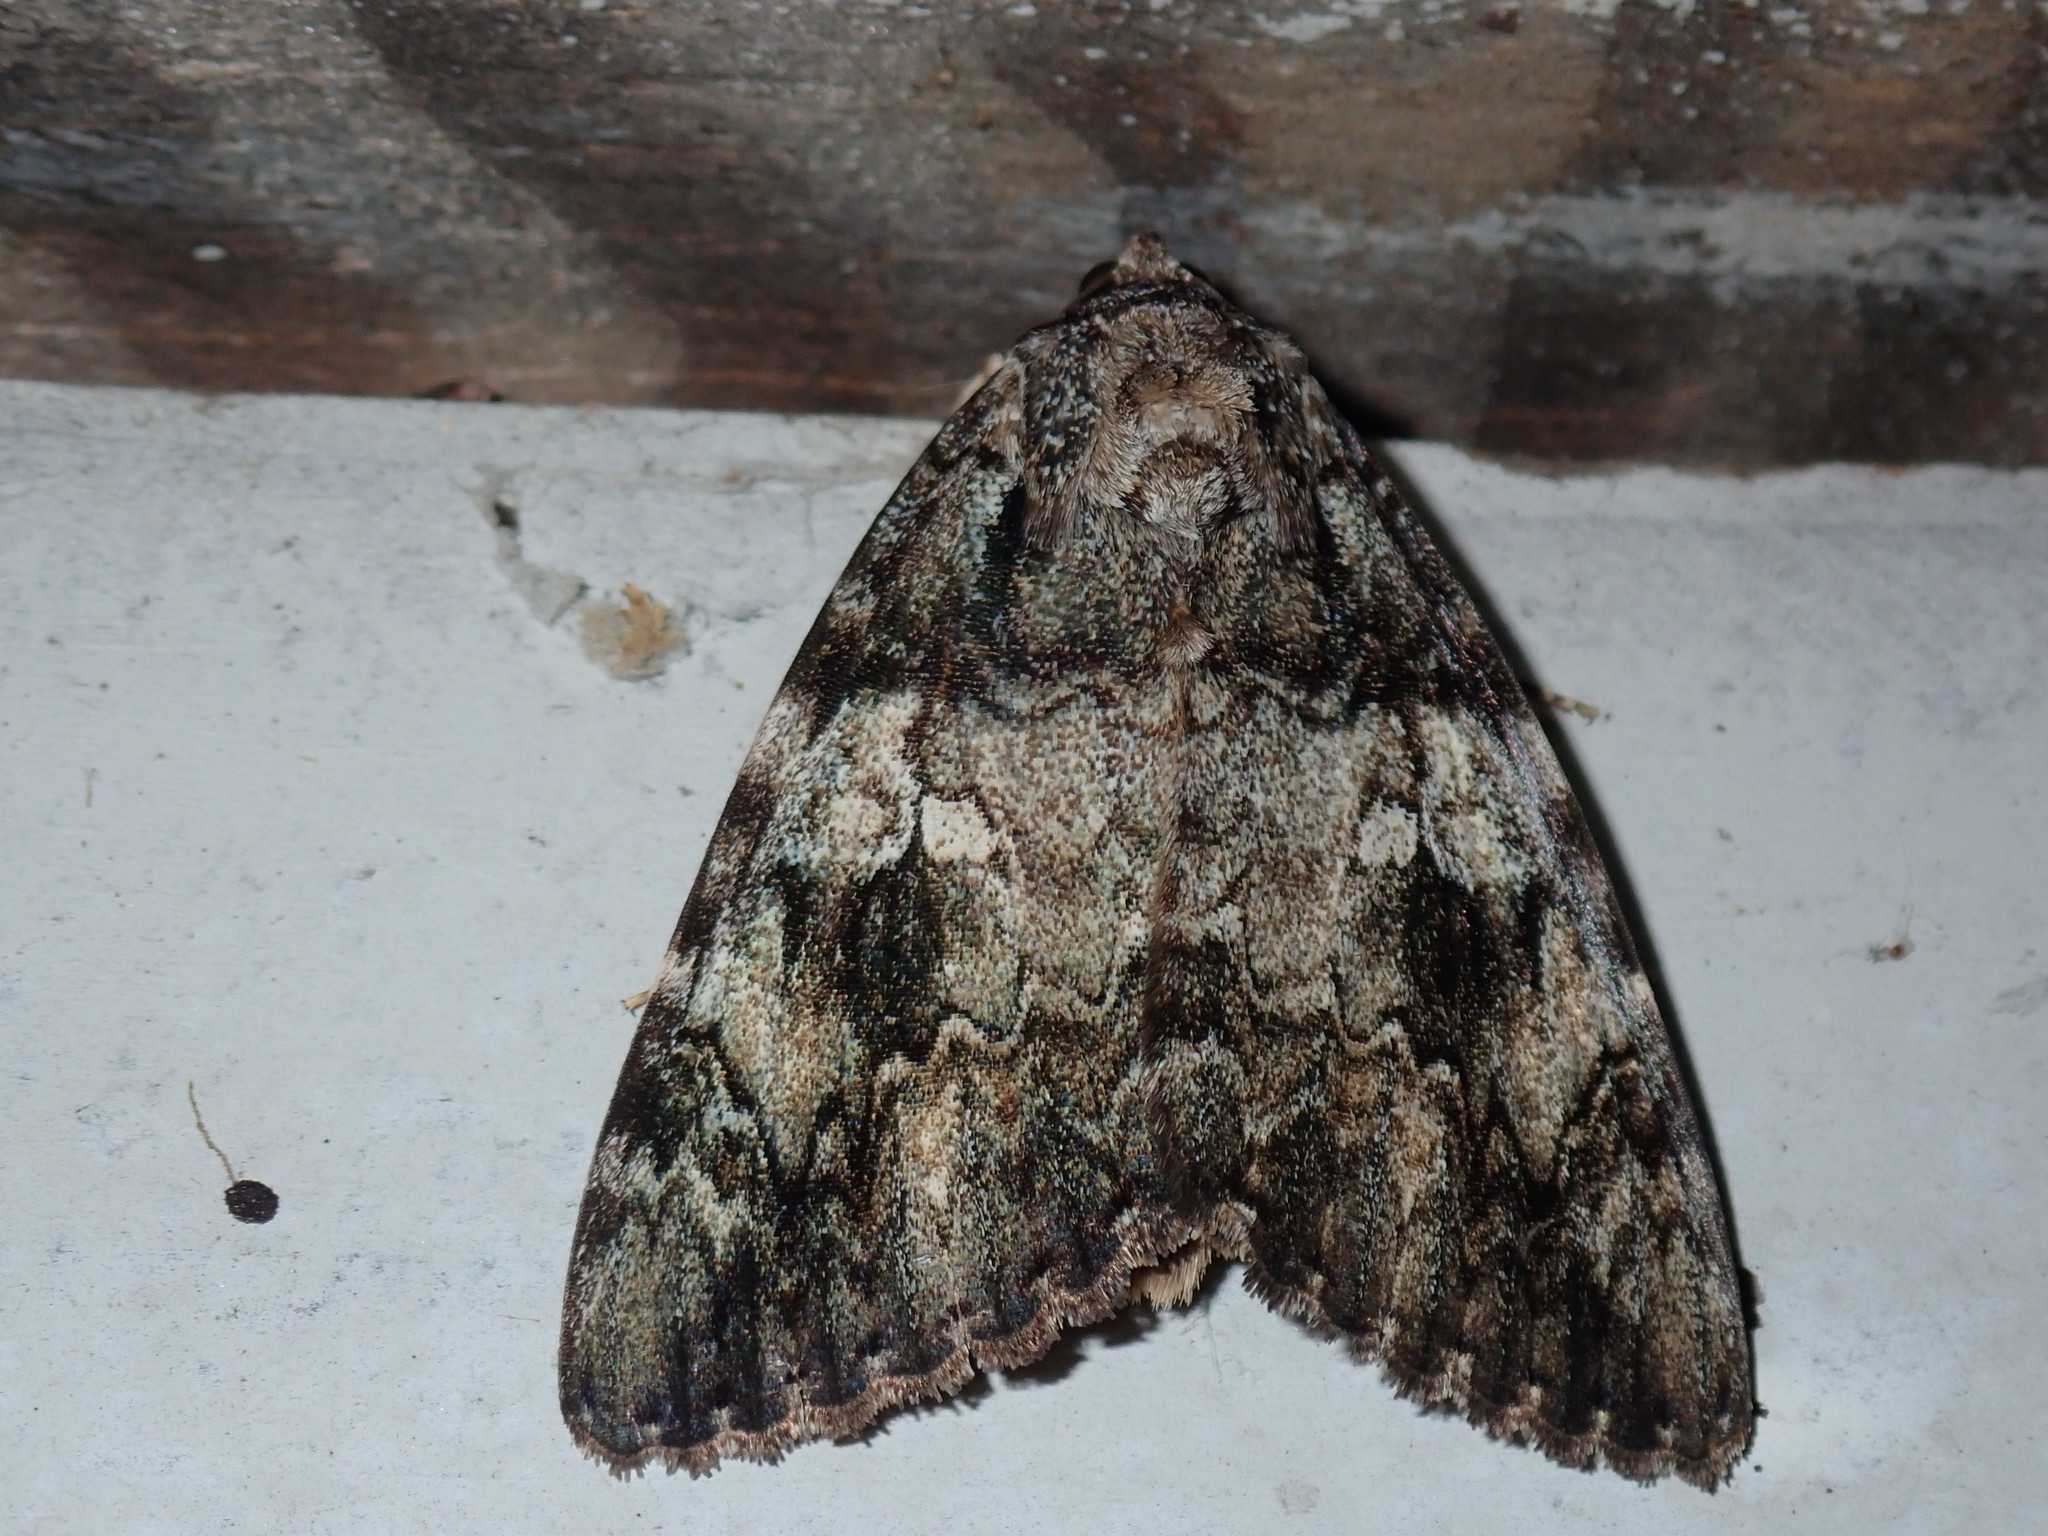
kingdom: Animalia
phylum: Arthropoda
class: Insecta
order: Lepidoptera
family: Erebidae
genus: Catocala
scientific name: Catocala ilia
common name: Ilia underwing
